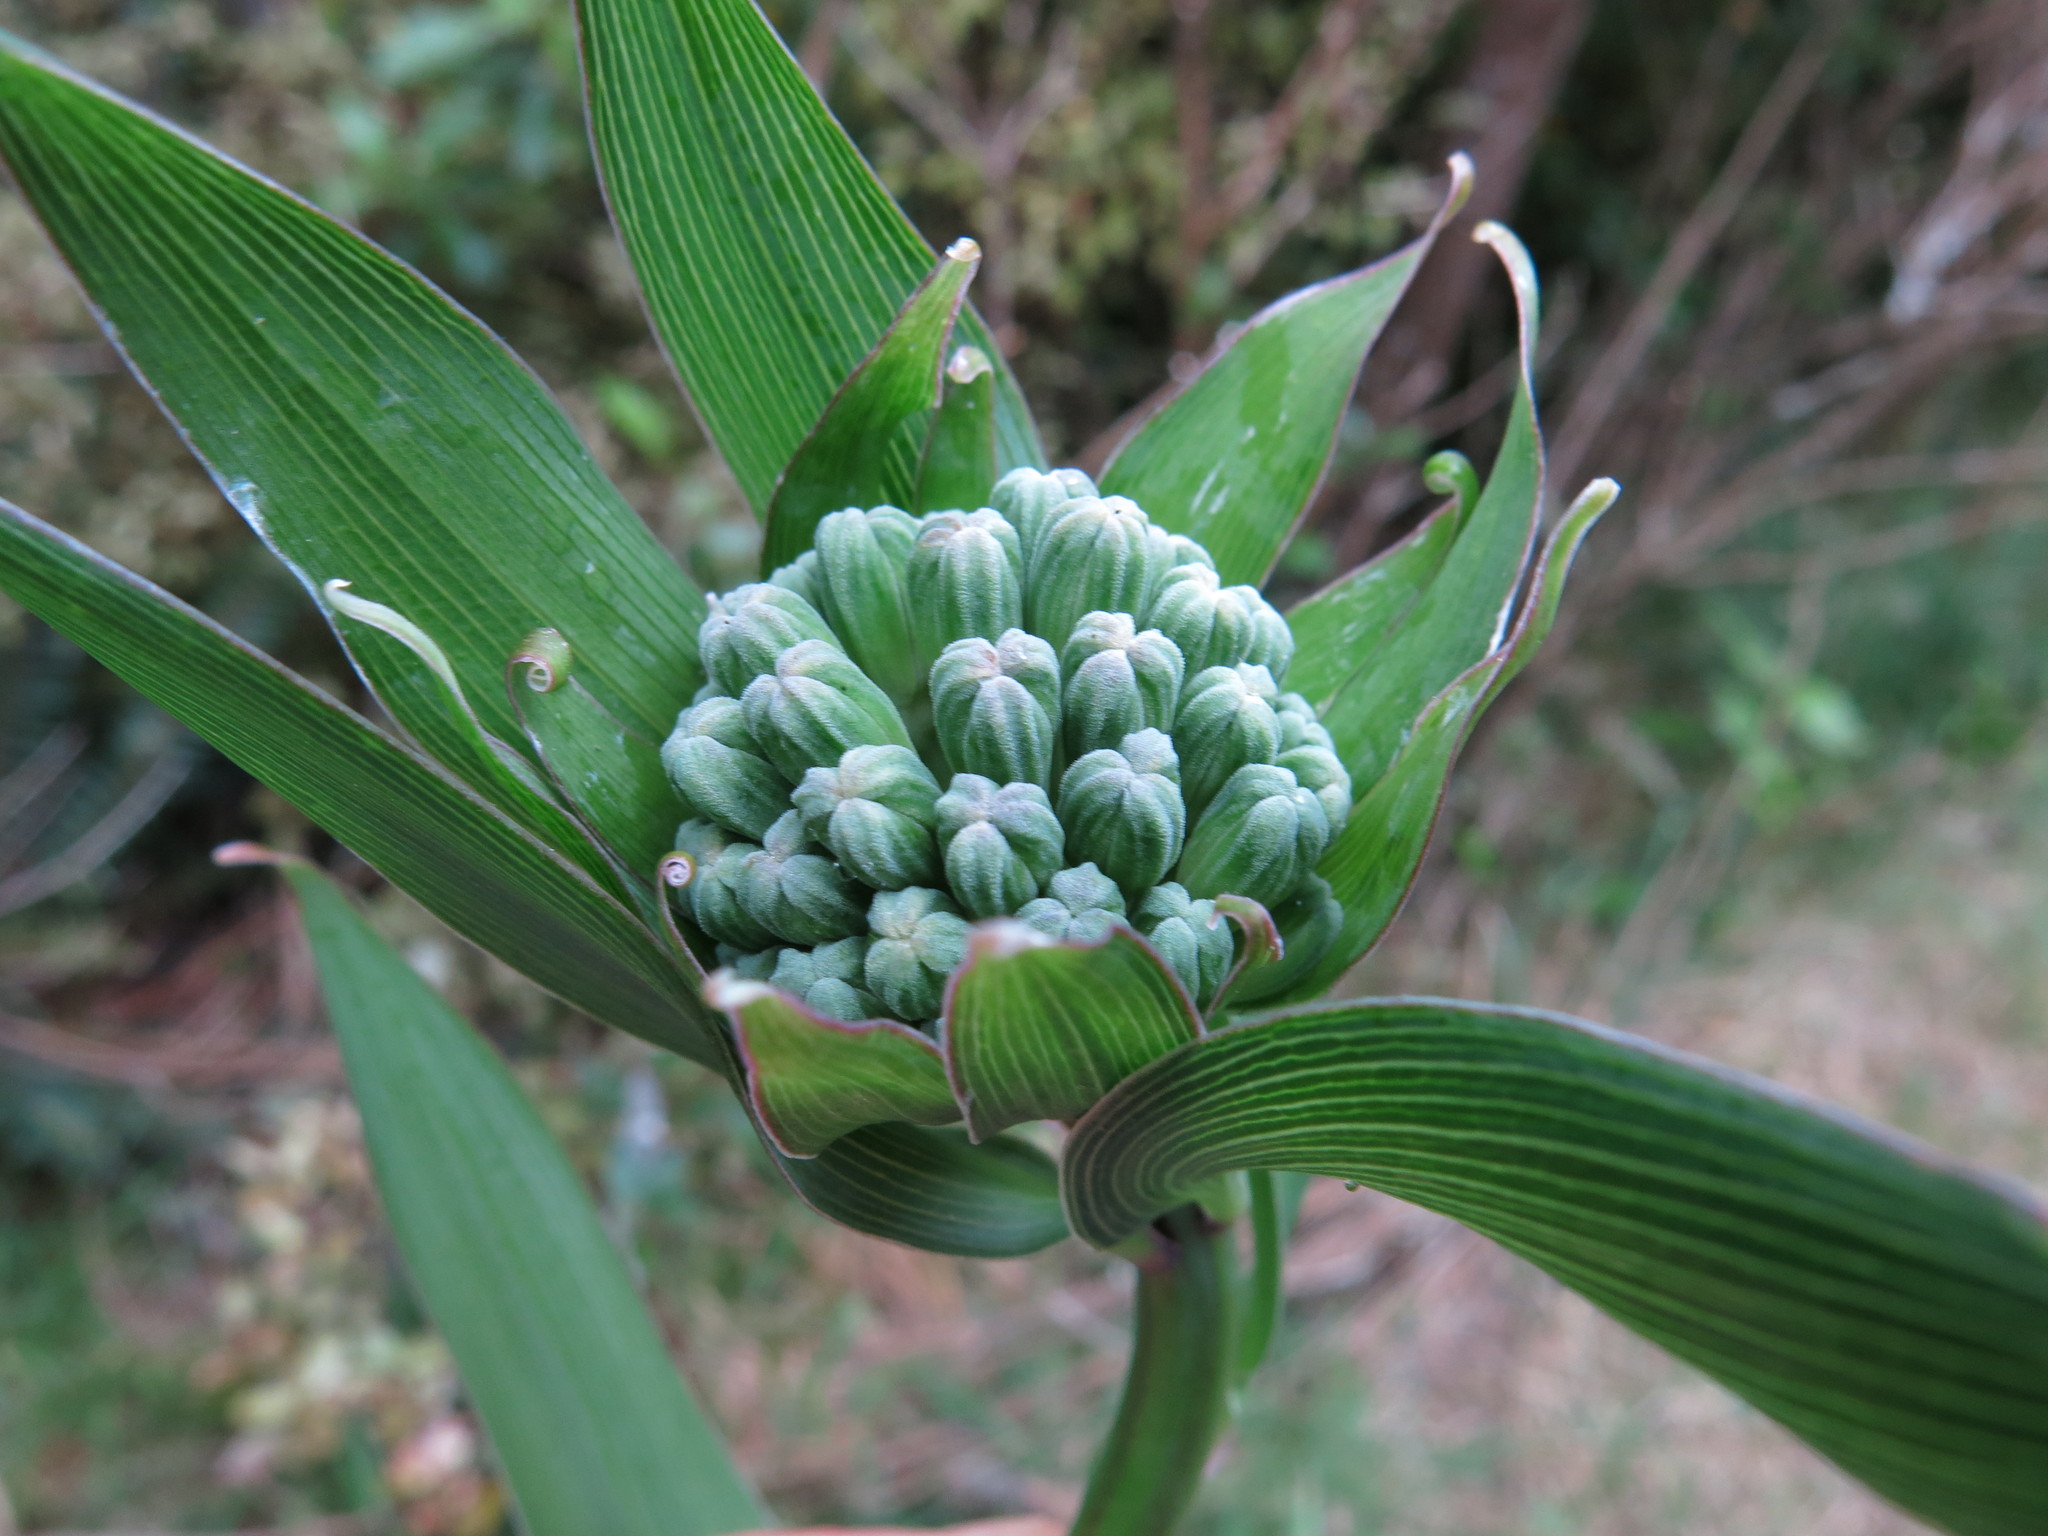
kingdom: Plantae
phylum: Tracheophyta
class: Liliopsida
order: Liliales
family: Alstroemeriaceae
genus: Bomarea
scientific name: Bomarea multiflora
